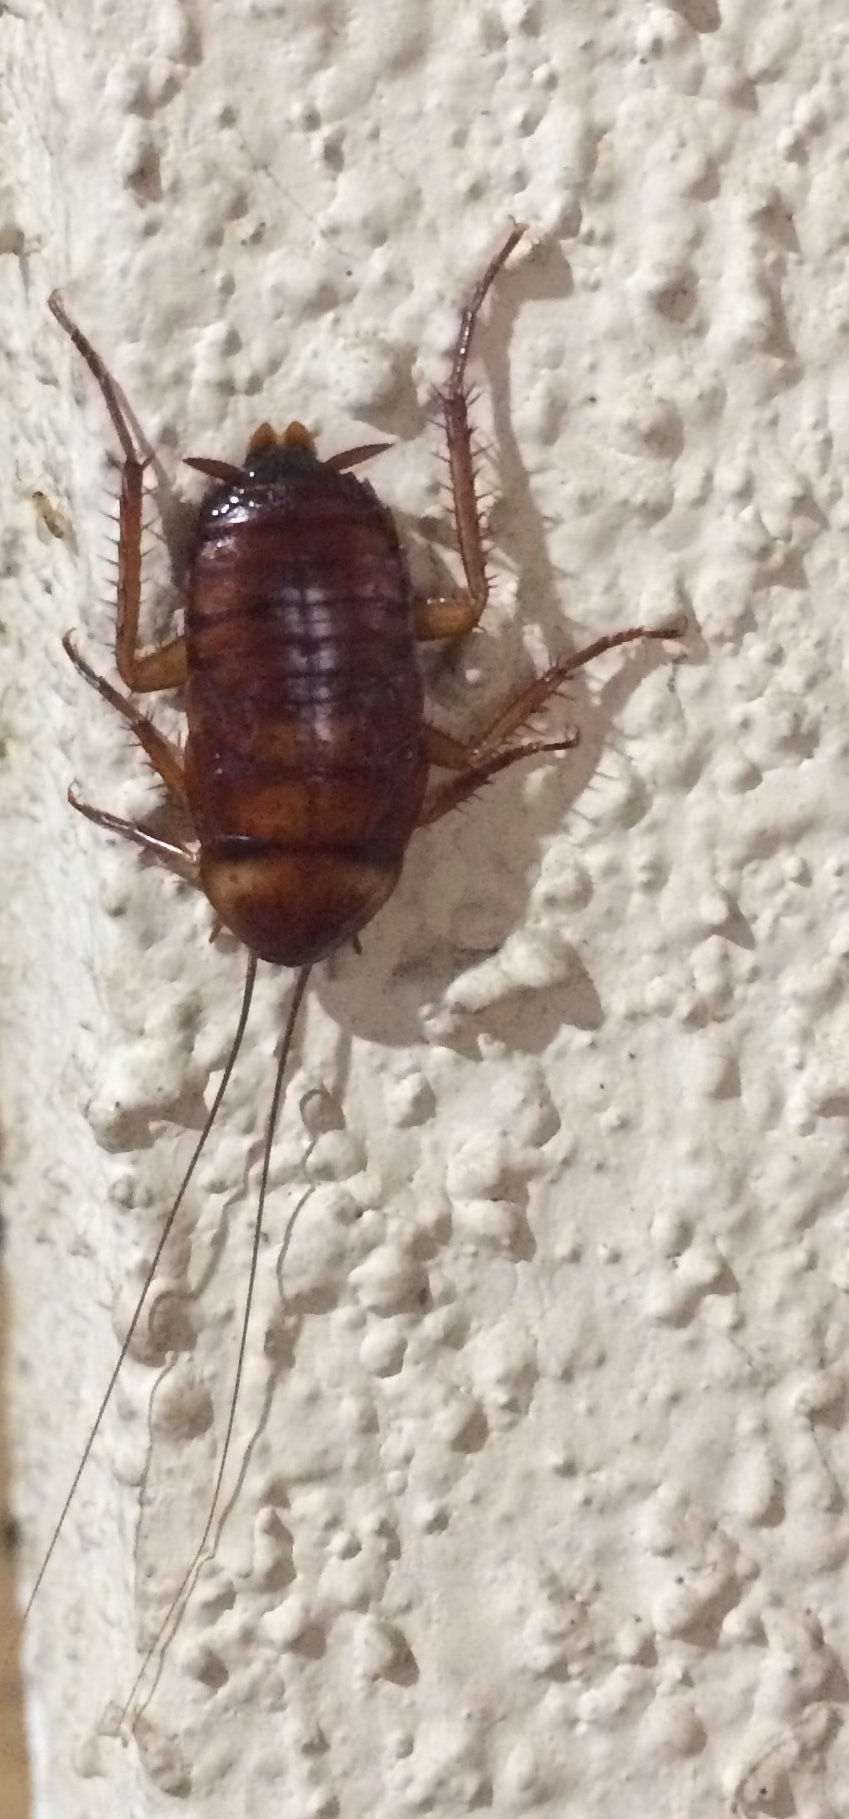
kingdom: Animalia
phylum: Arthropoda
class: Insecta
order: Blattodea
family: Blattidae
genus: Periplaneta
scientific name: Periplaneta americana
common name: American cockroach
